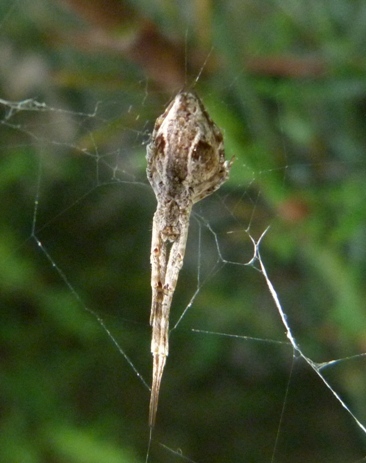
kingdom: Animalia
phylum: Arthropoda
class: Arachnida
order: Araneae
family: Uloboridae
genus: Uloborus
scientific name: Uloborus walckenaerius
